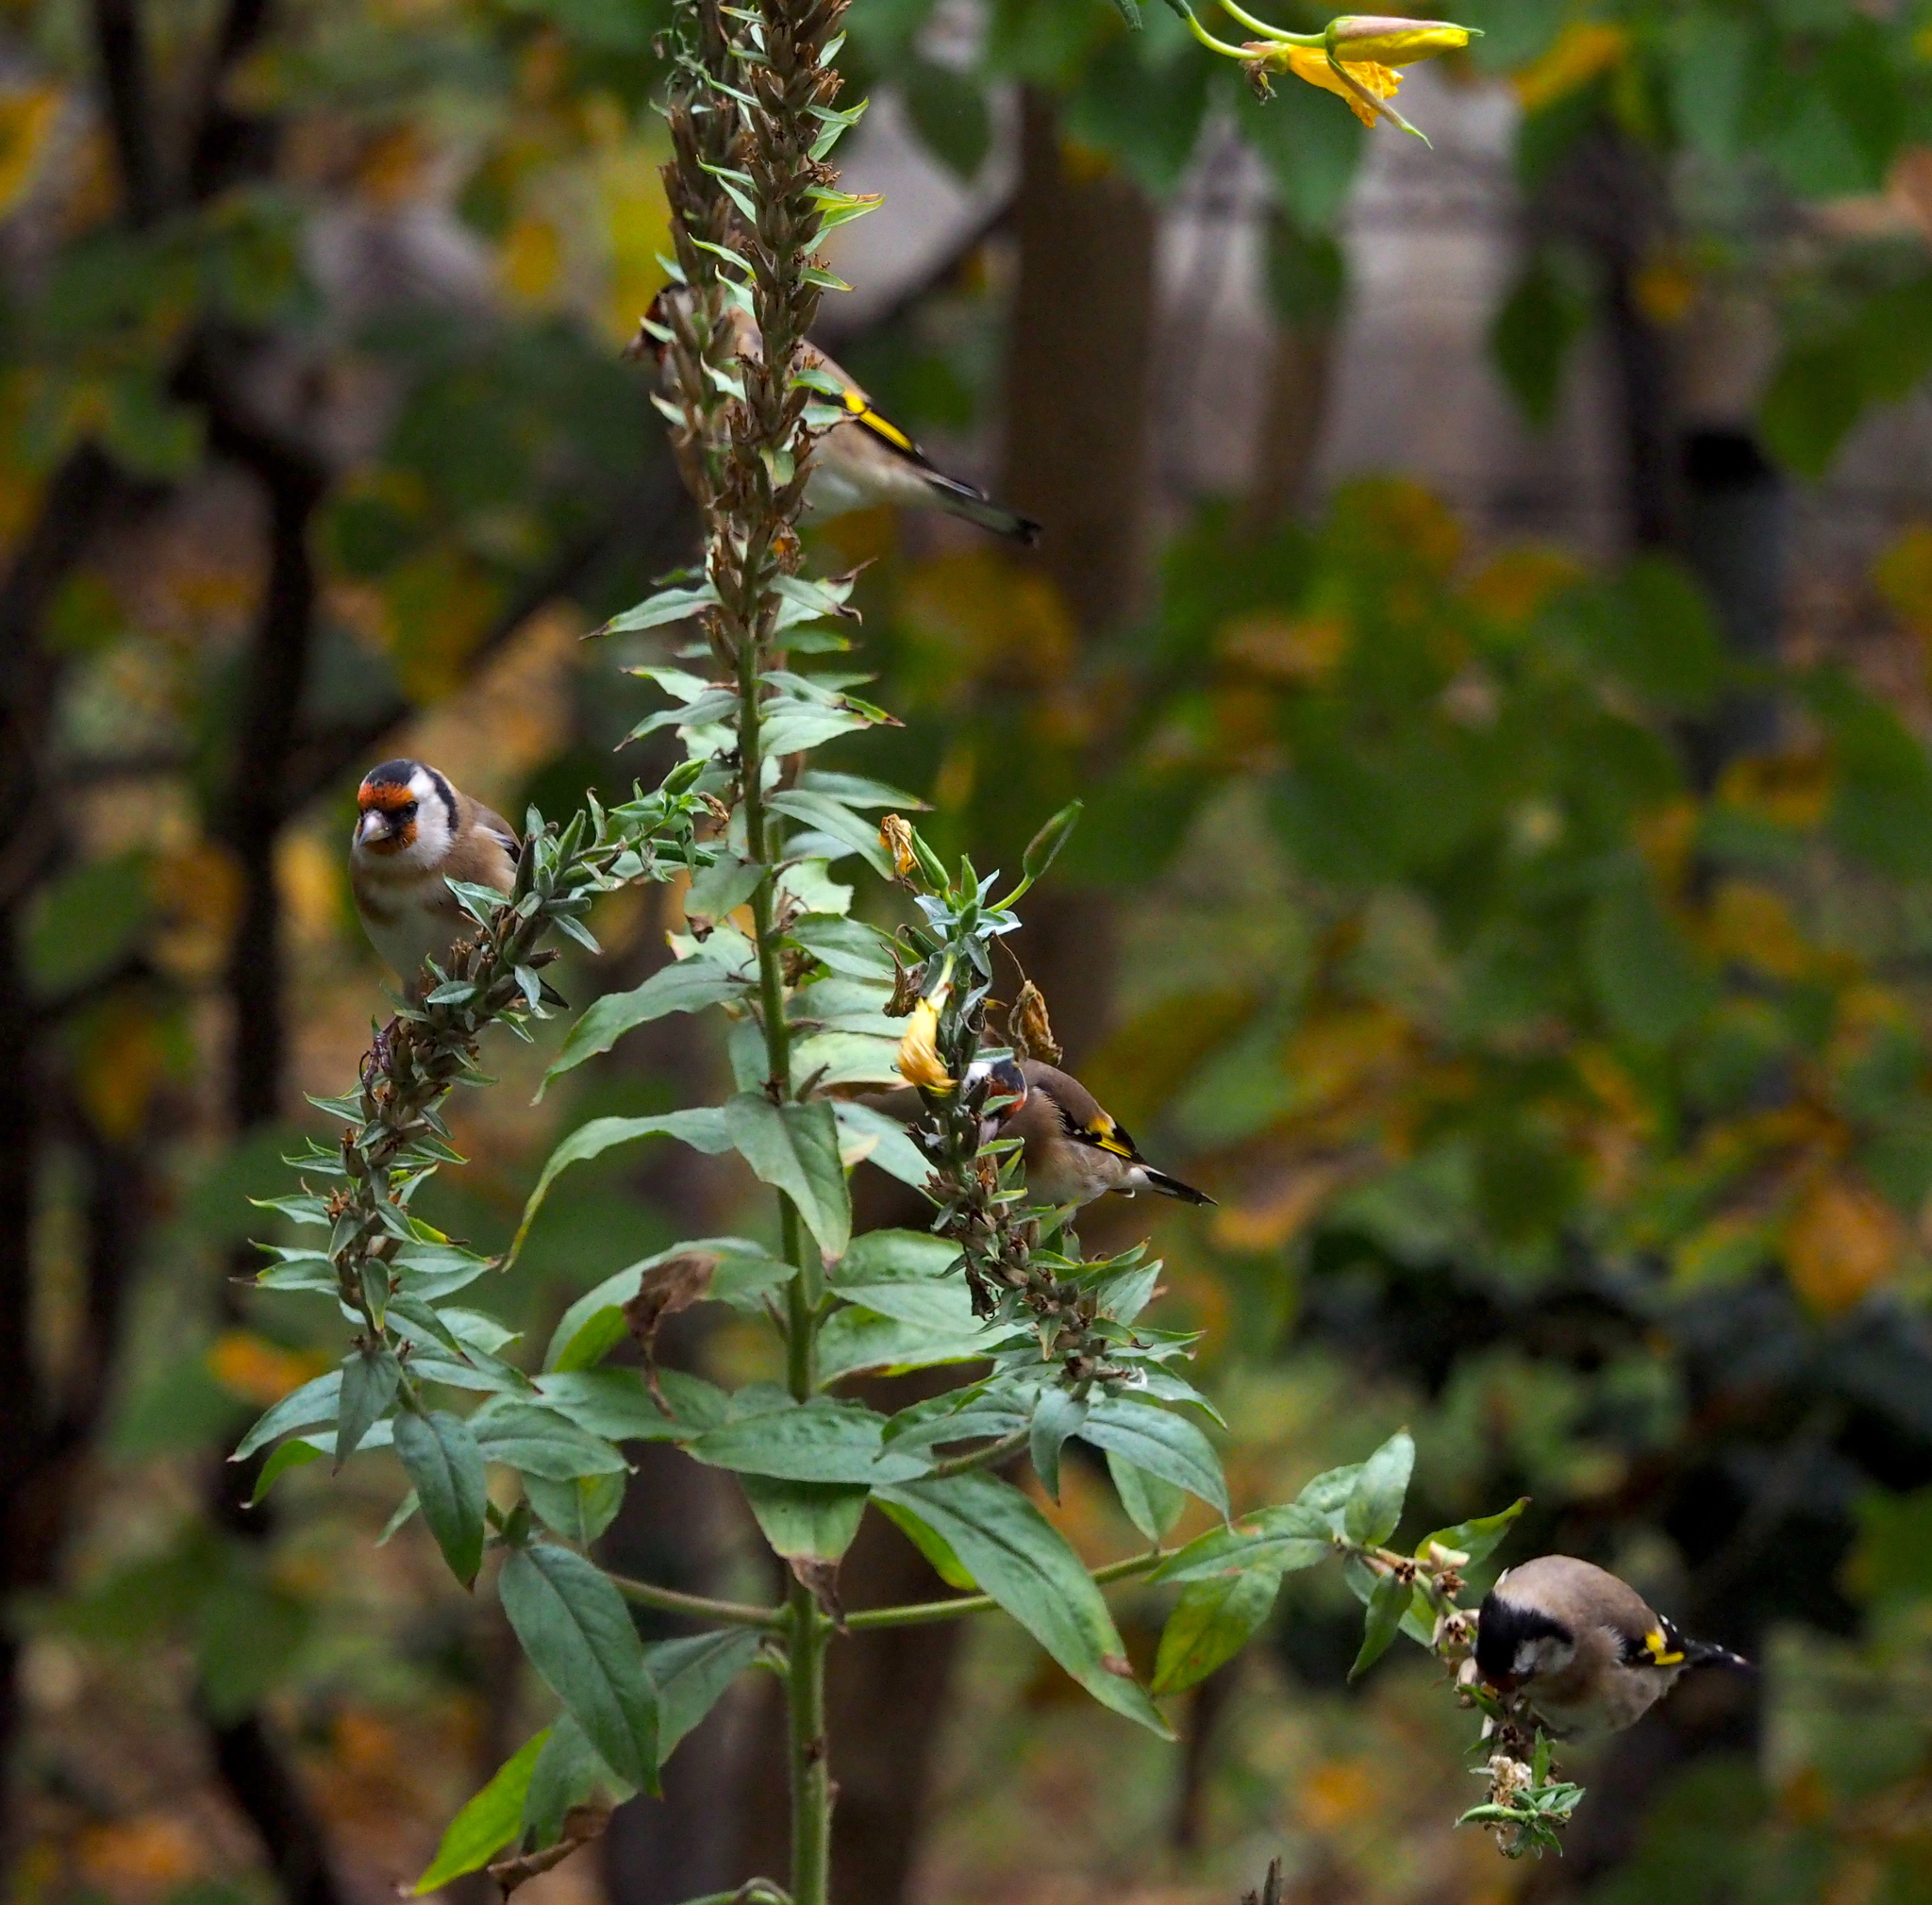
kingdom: Animalia
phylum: Chordata
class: Aves
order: Passeriformes
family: Fringillidae
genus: Carduelis
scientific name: Carduelis carduelis
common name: European goldfinch
